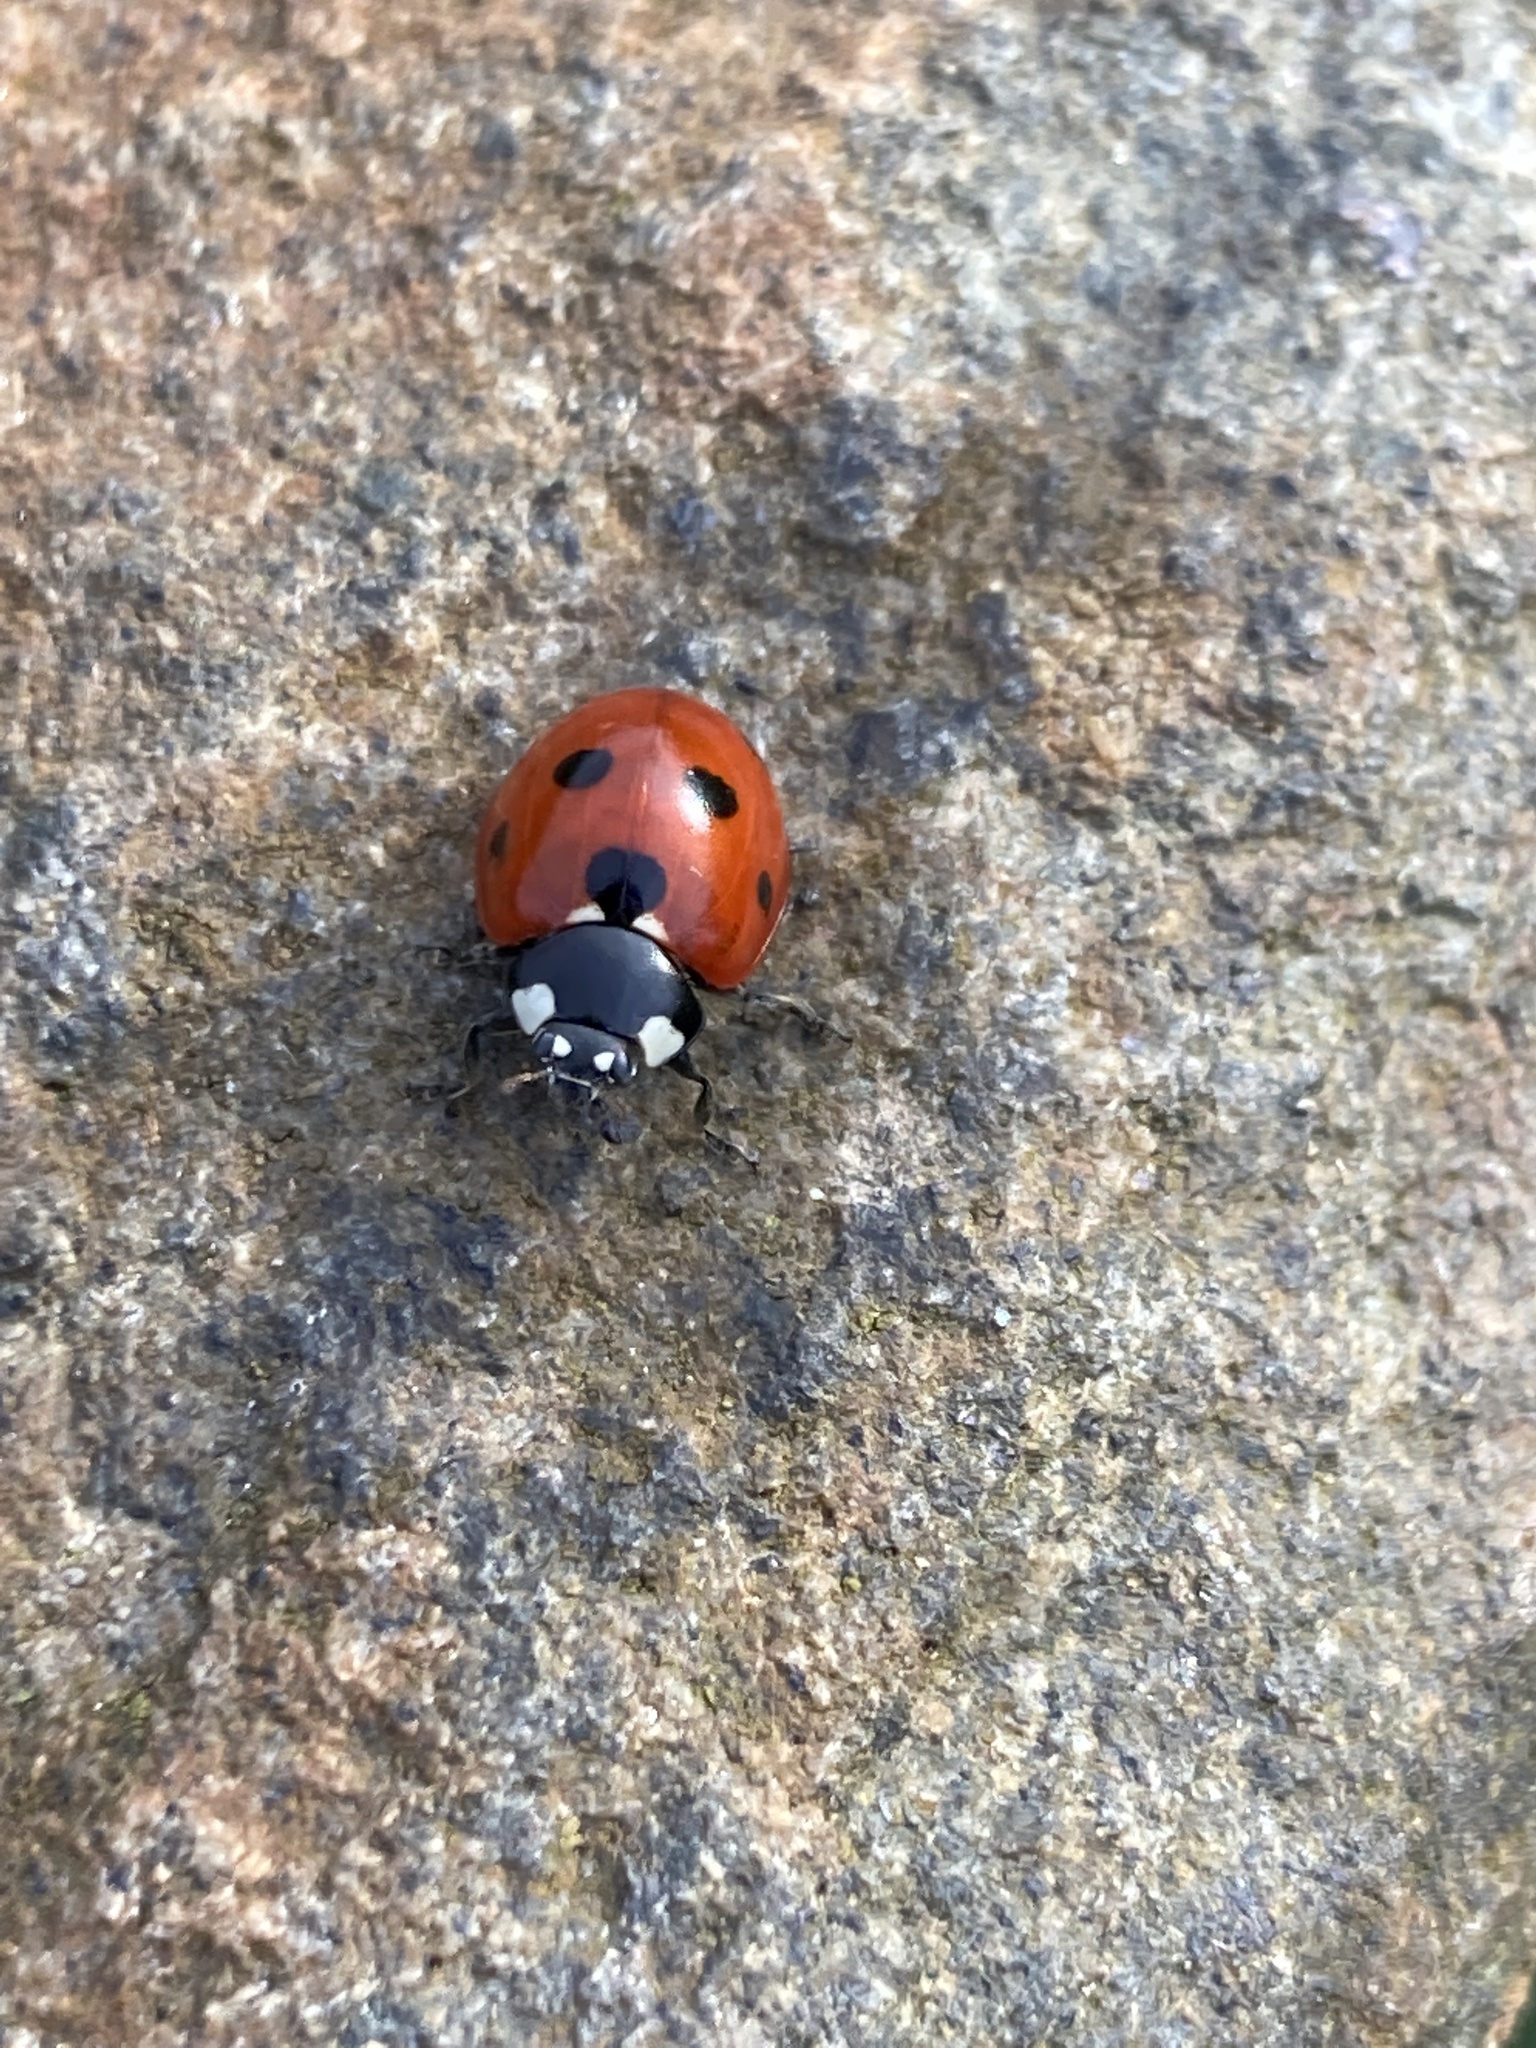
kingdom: Animalia
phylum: Arthropoda
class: Insecta
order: Coleoptera
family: Coccinellidae
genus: Coccinella
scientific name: Coccinella septempunctata
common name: Sevenspotted lady beetle
